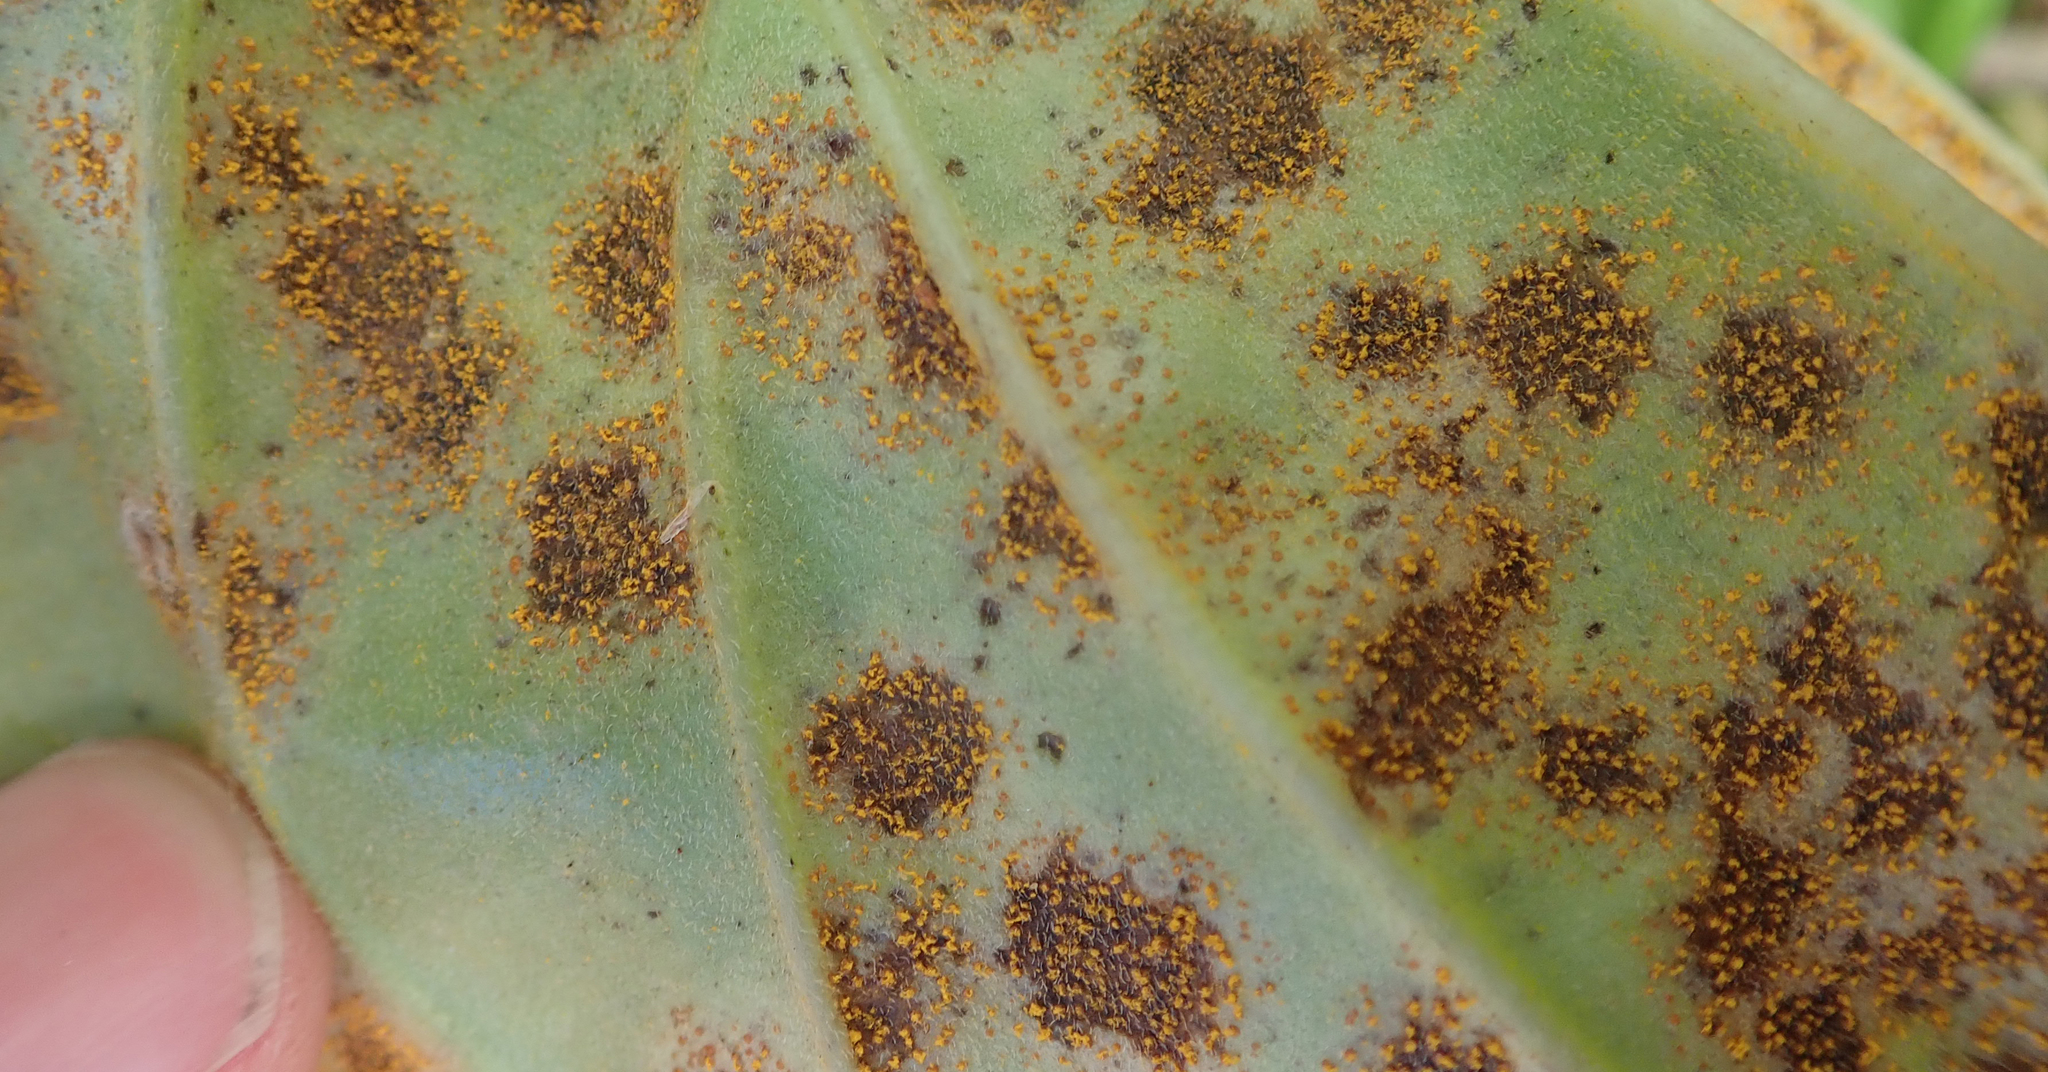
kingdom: Fungi
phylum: Basidiomycota
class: Pucciniomycetes
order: Pucciniales
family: Pucciniastraceae
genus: Pucciniastrum
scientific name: Pucciniastrum myosotidii
